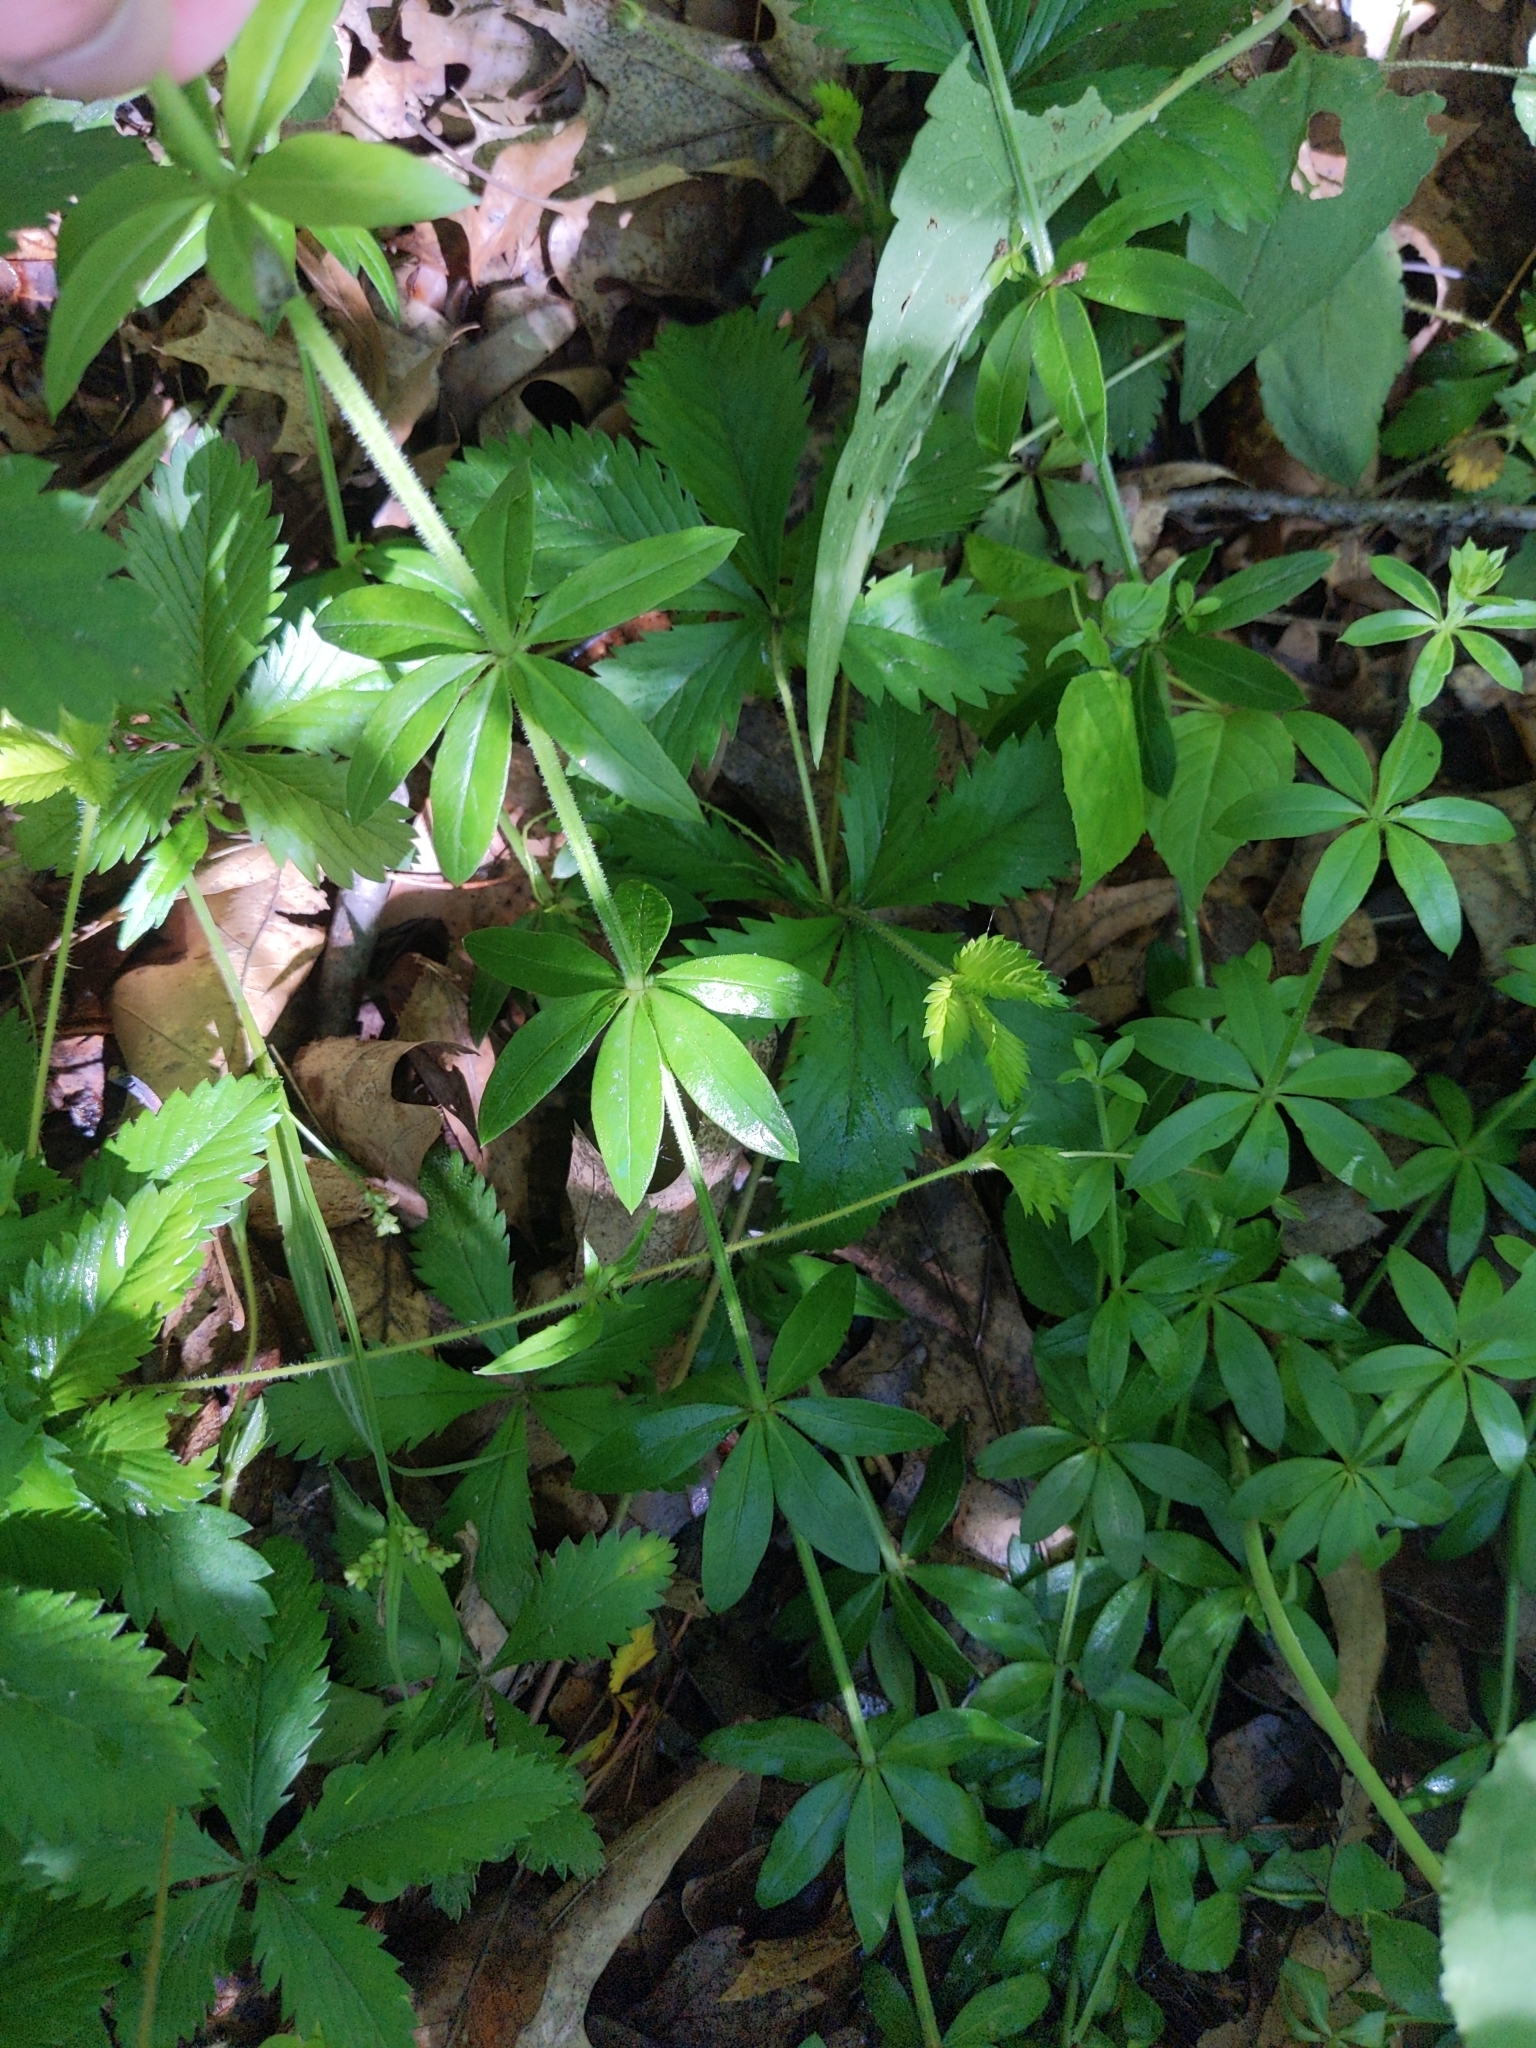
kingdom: Plantae
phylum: Tracheophyta
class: Magnoliopsida
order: Gentianales
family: Rubiaceae
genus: Galium
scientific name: Galium triflorum
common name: Fragrant bedstraw
